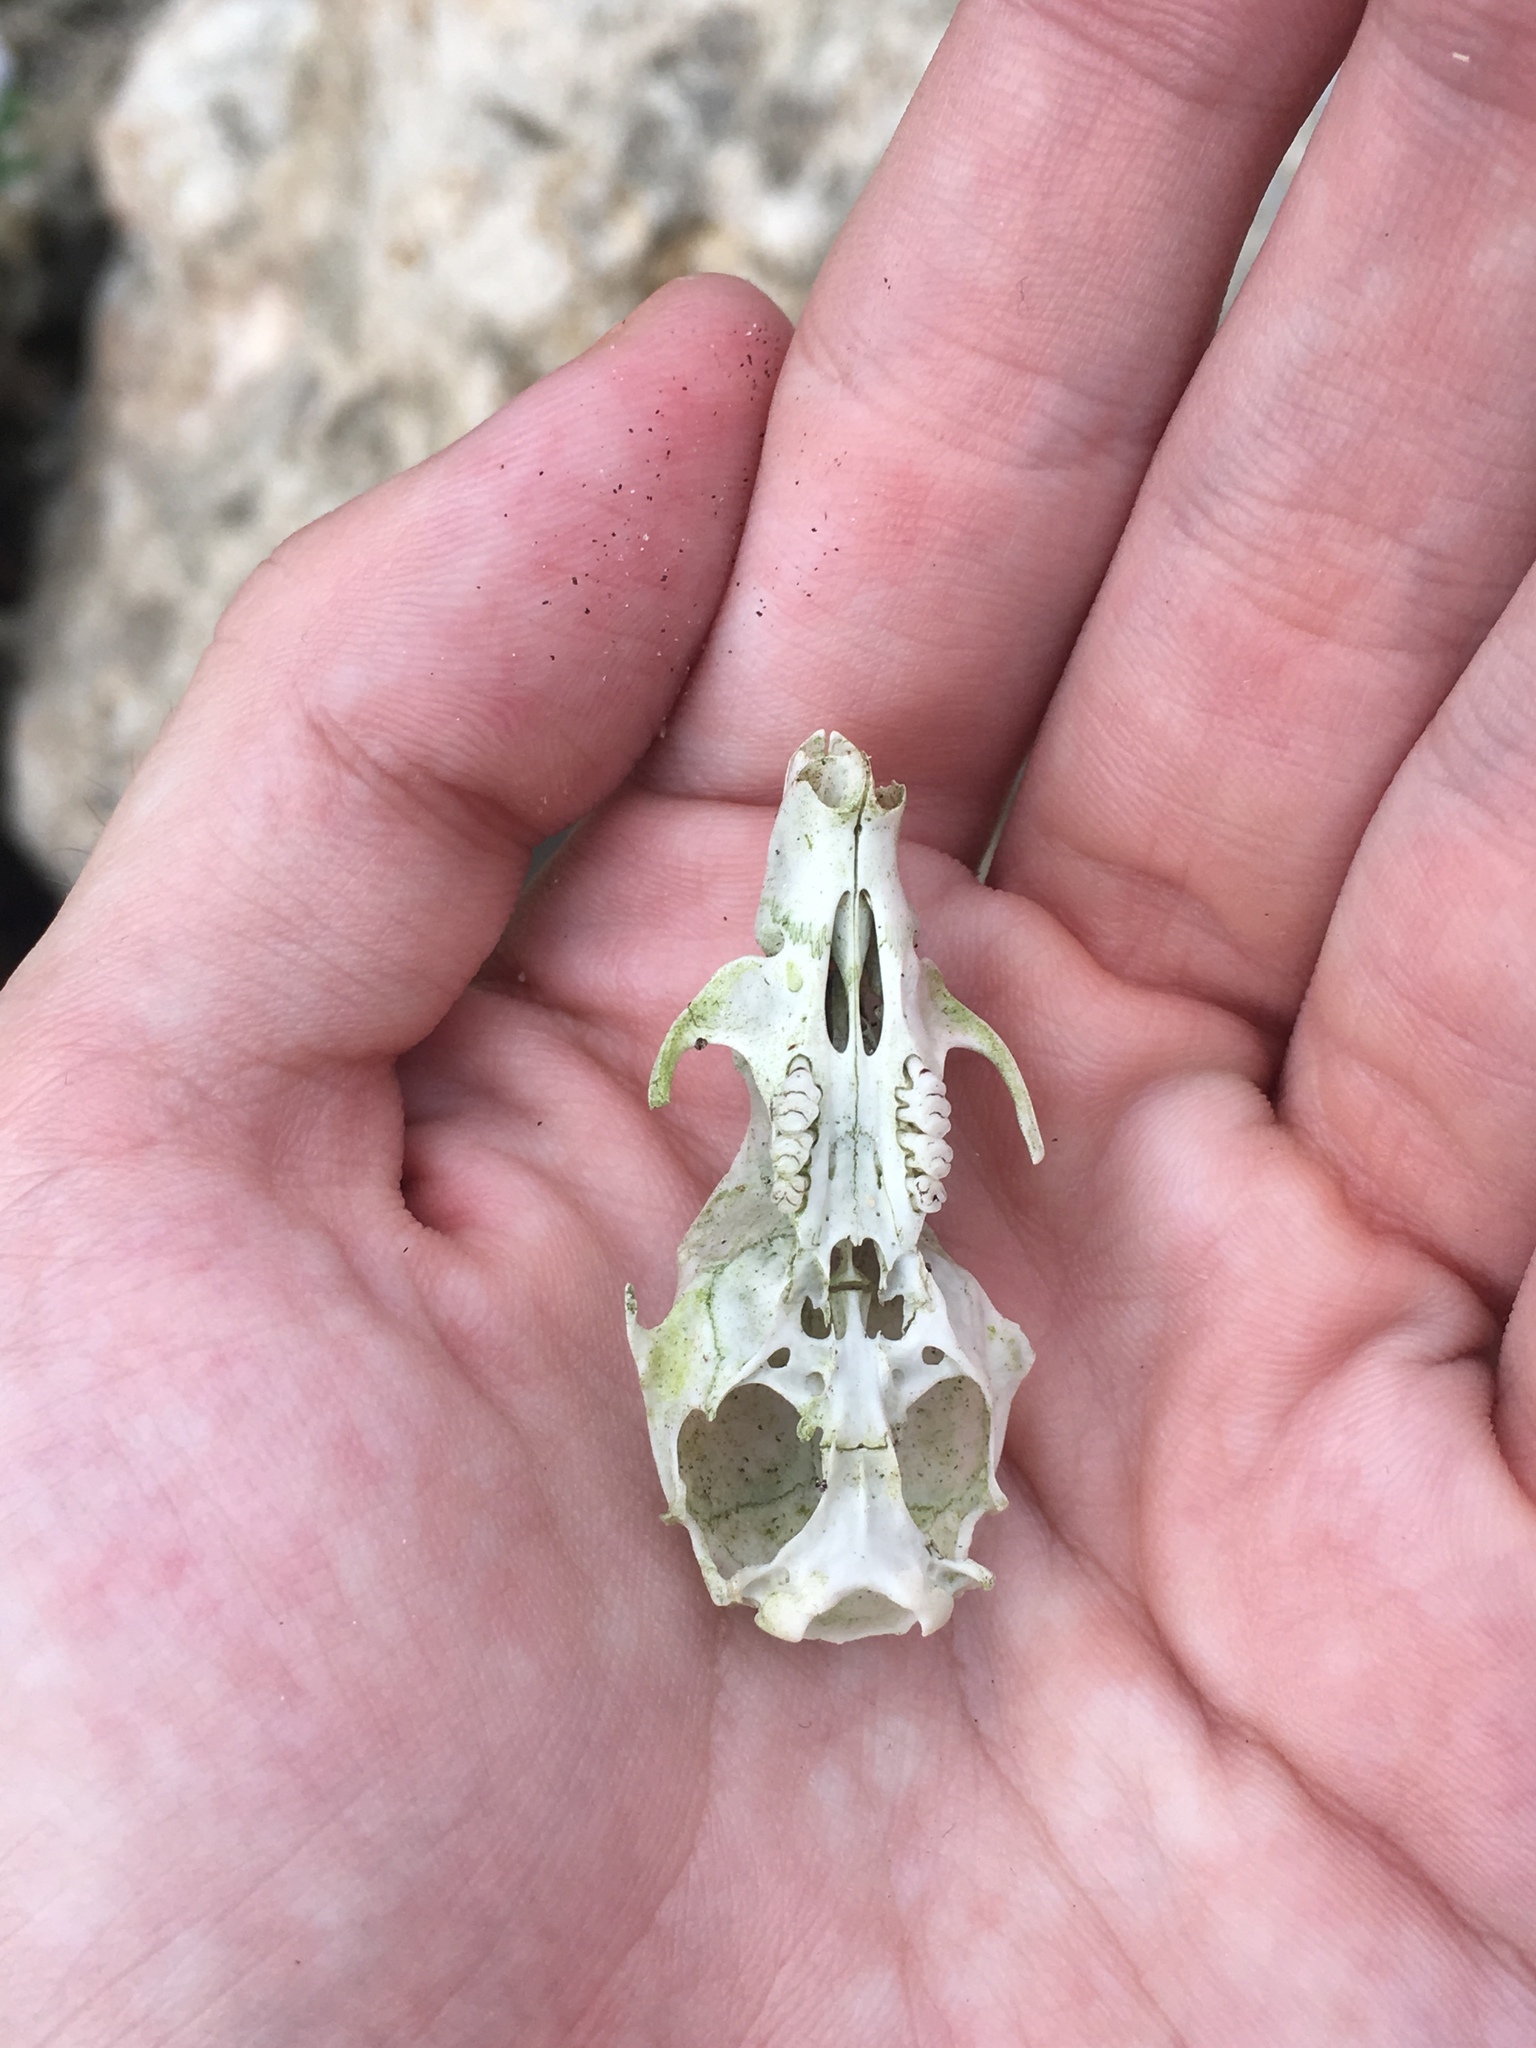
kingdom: Animalia
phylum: Chordata
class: Mammalia
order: Rodentia
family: Muridae
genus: Rattus
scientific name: Rattus rattus
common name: Black rat
